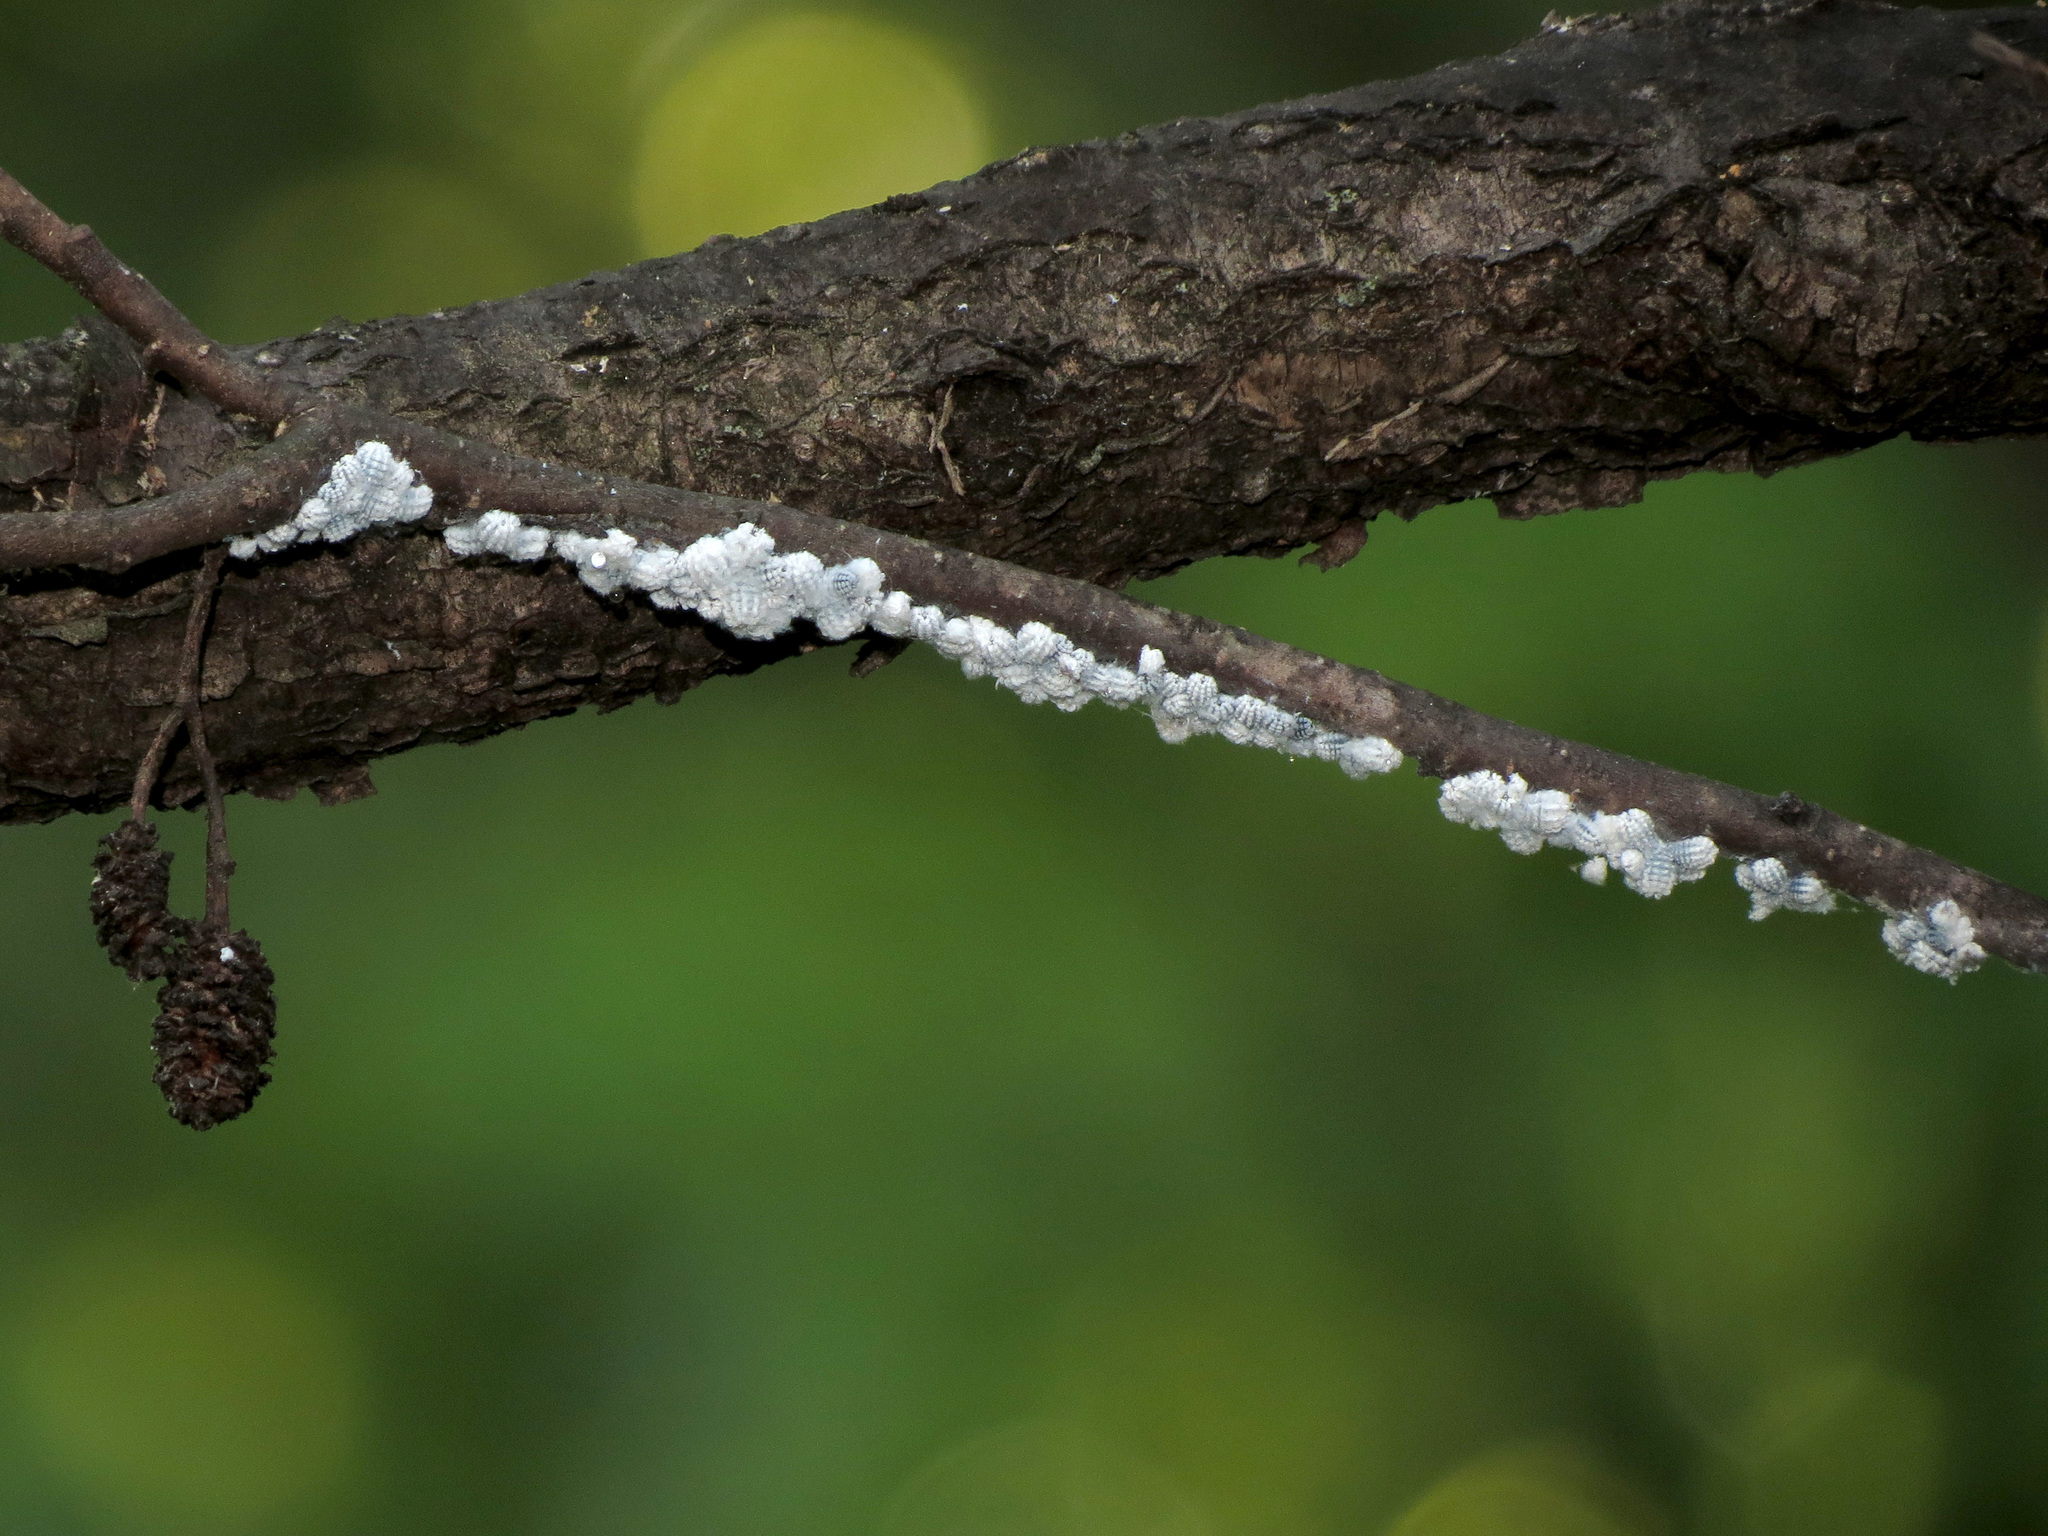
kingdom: Animalia
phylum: Arthropoda
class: Insecta
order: Hemiptera
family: Aphididae
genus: Prociphilus
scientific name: Prociphilus tessellatus
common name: Woolly alder aphid
